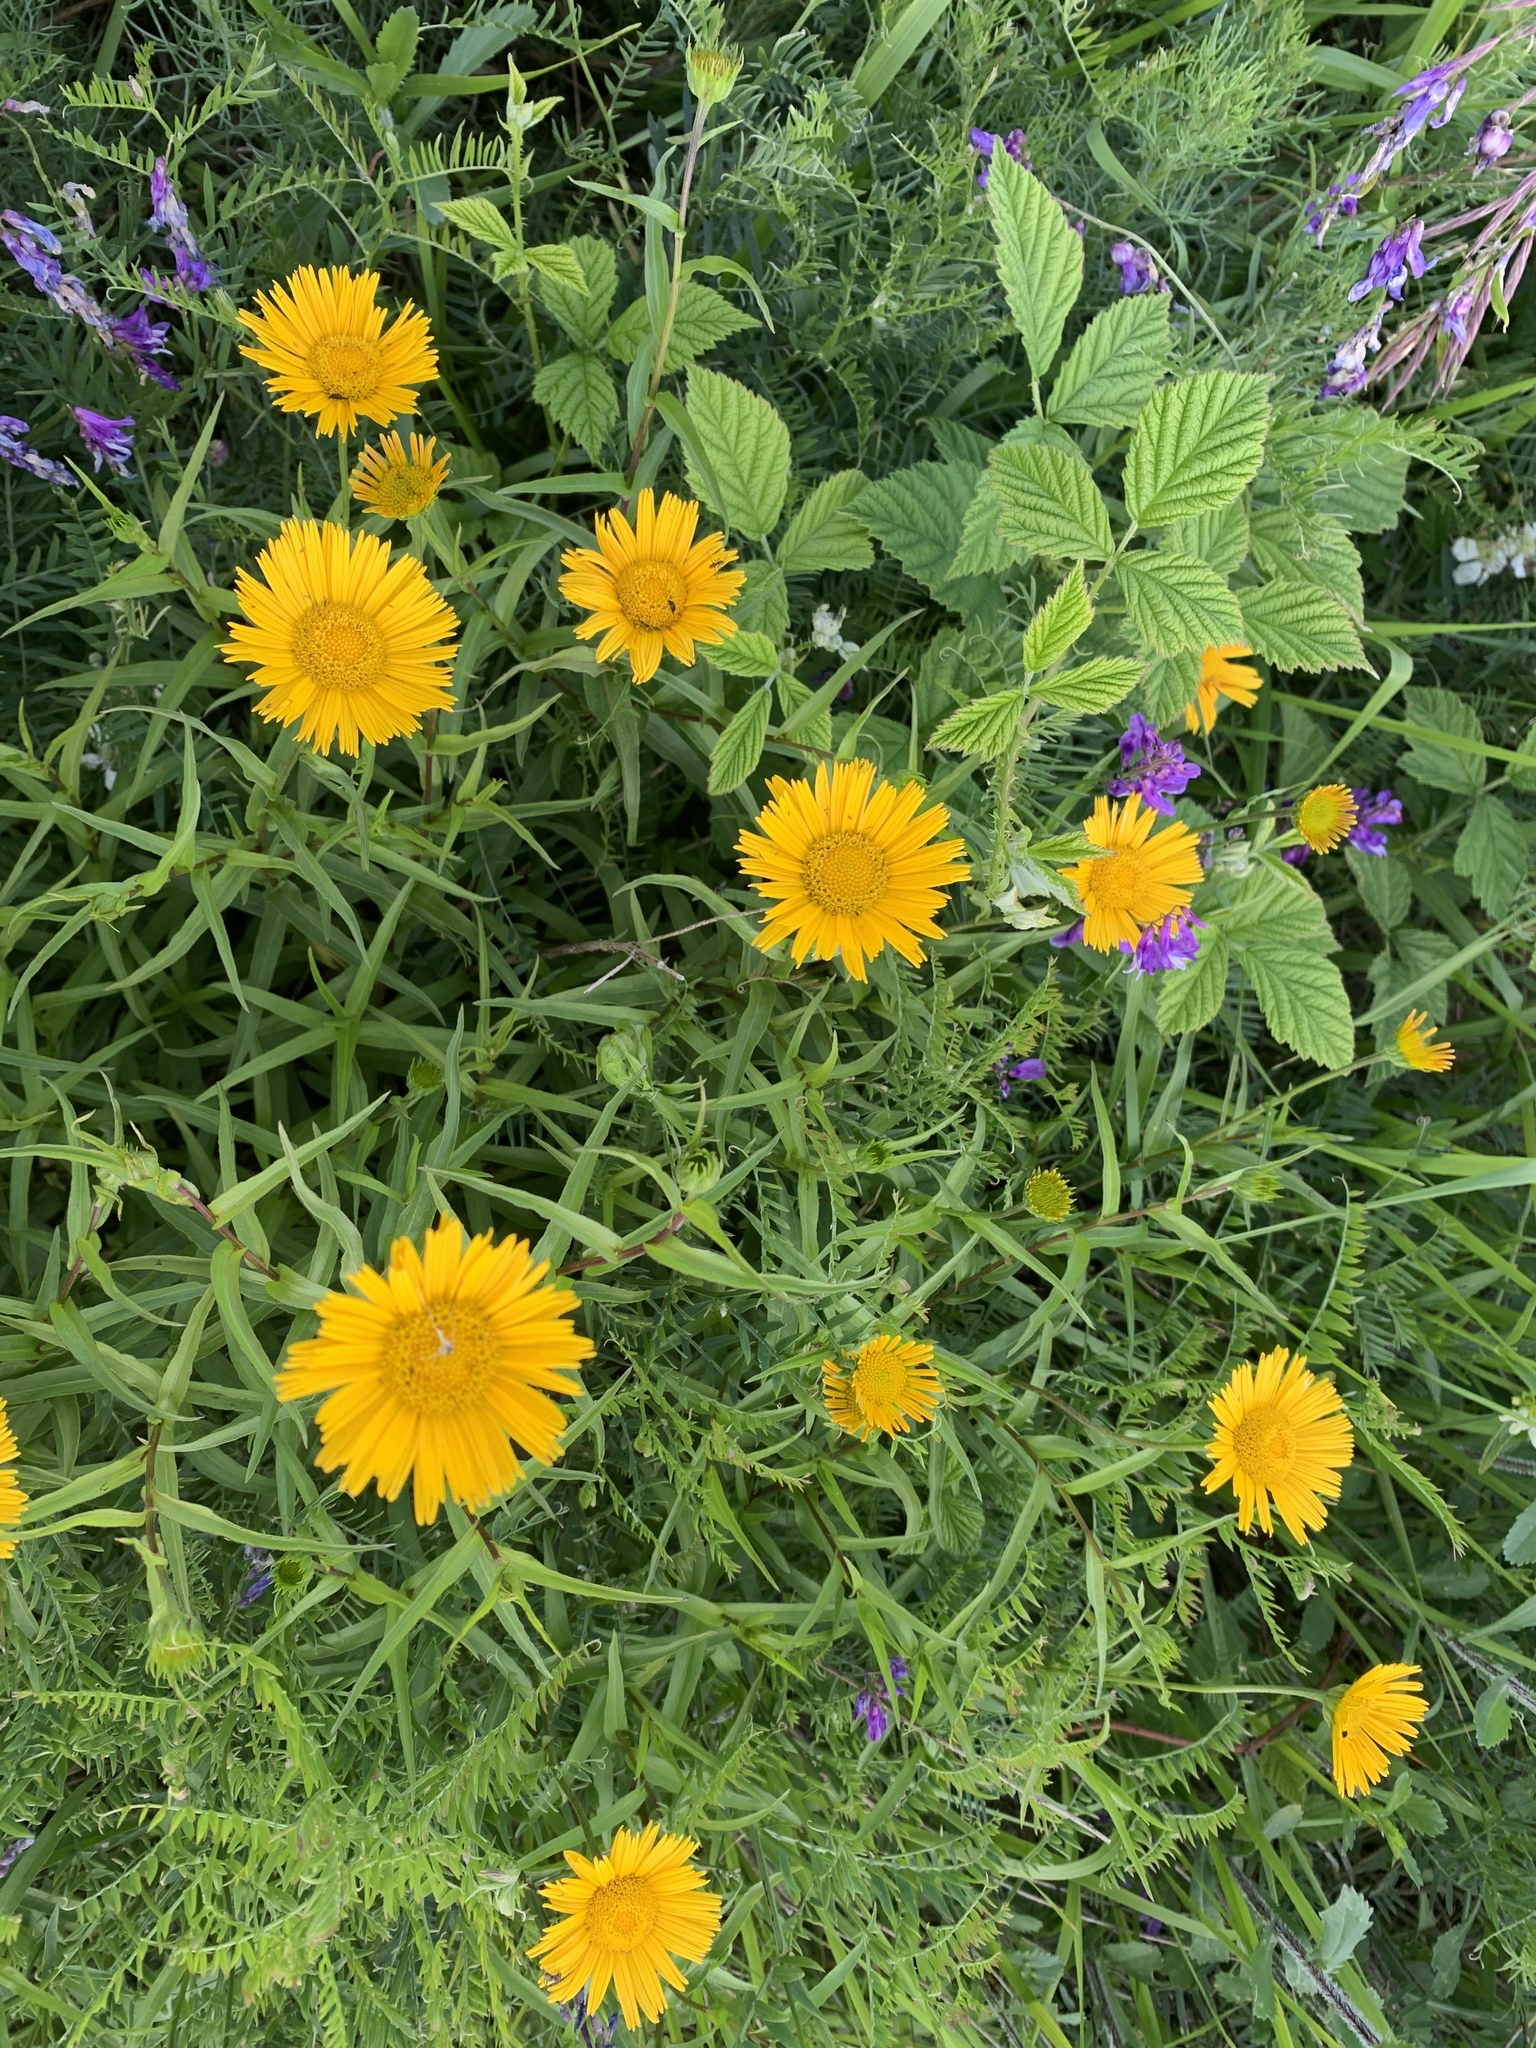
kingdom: Plantae
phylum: Tracheophyta
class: Magnoliopsida
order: Asterales
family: Asteraceae
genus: Buphthalmum
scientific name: Buphthalmum salicifolium
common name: Willow-leaved yellow-oxeye
